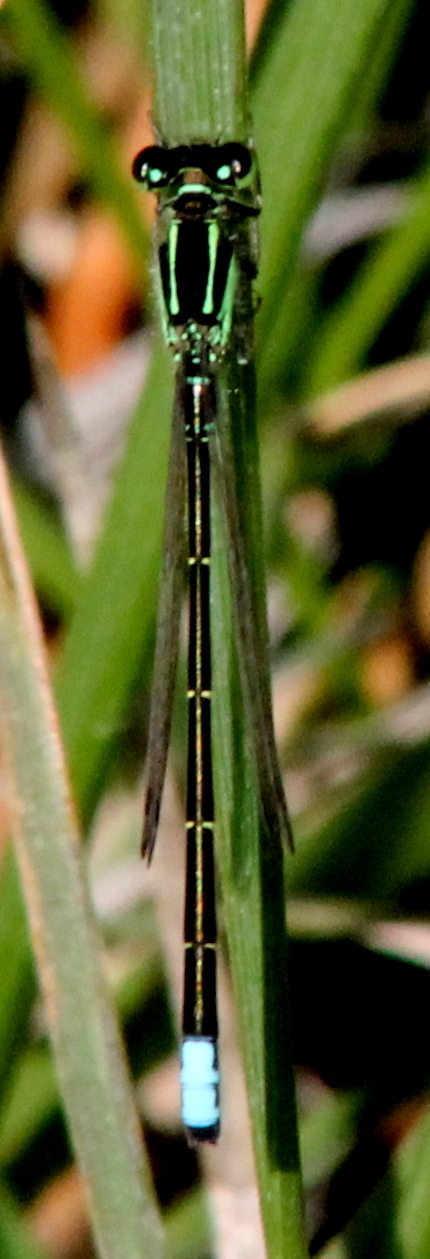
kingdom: Animalia
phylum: Arthropoda
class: Insecta
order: Odonata
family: Coenagrionidae
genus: Ischnura
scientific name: Ischnura verticalis
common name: Eastern forktail
